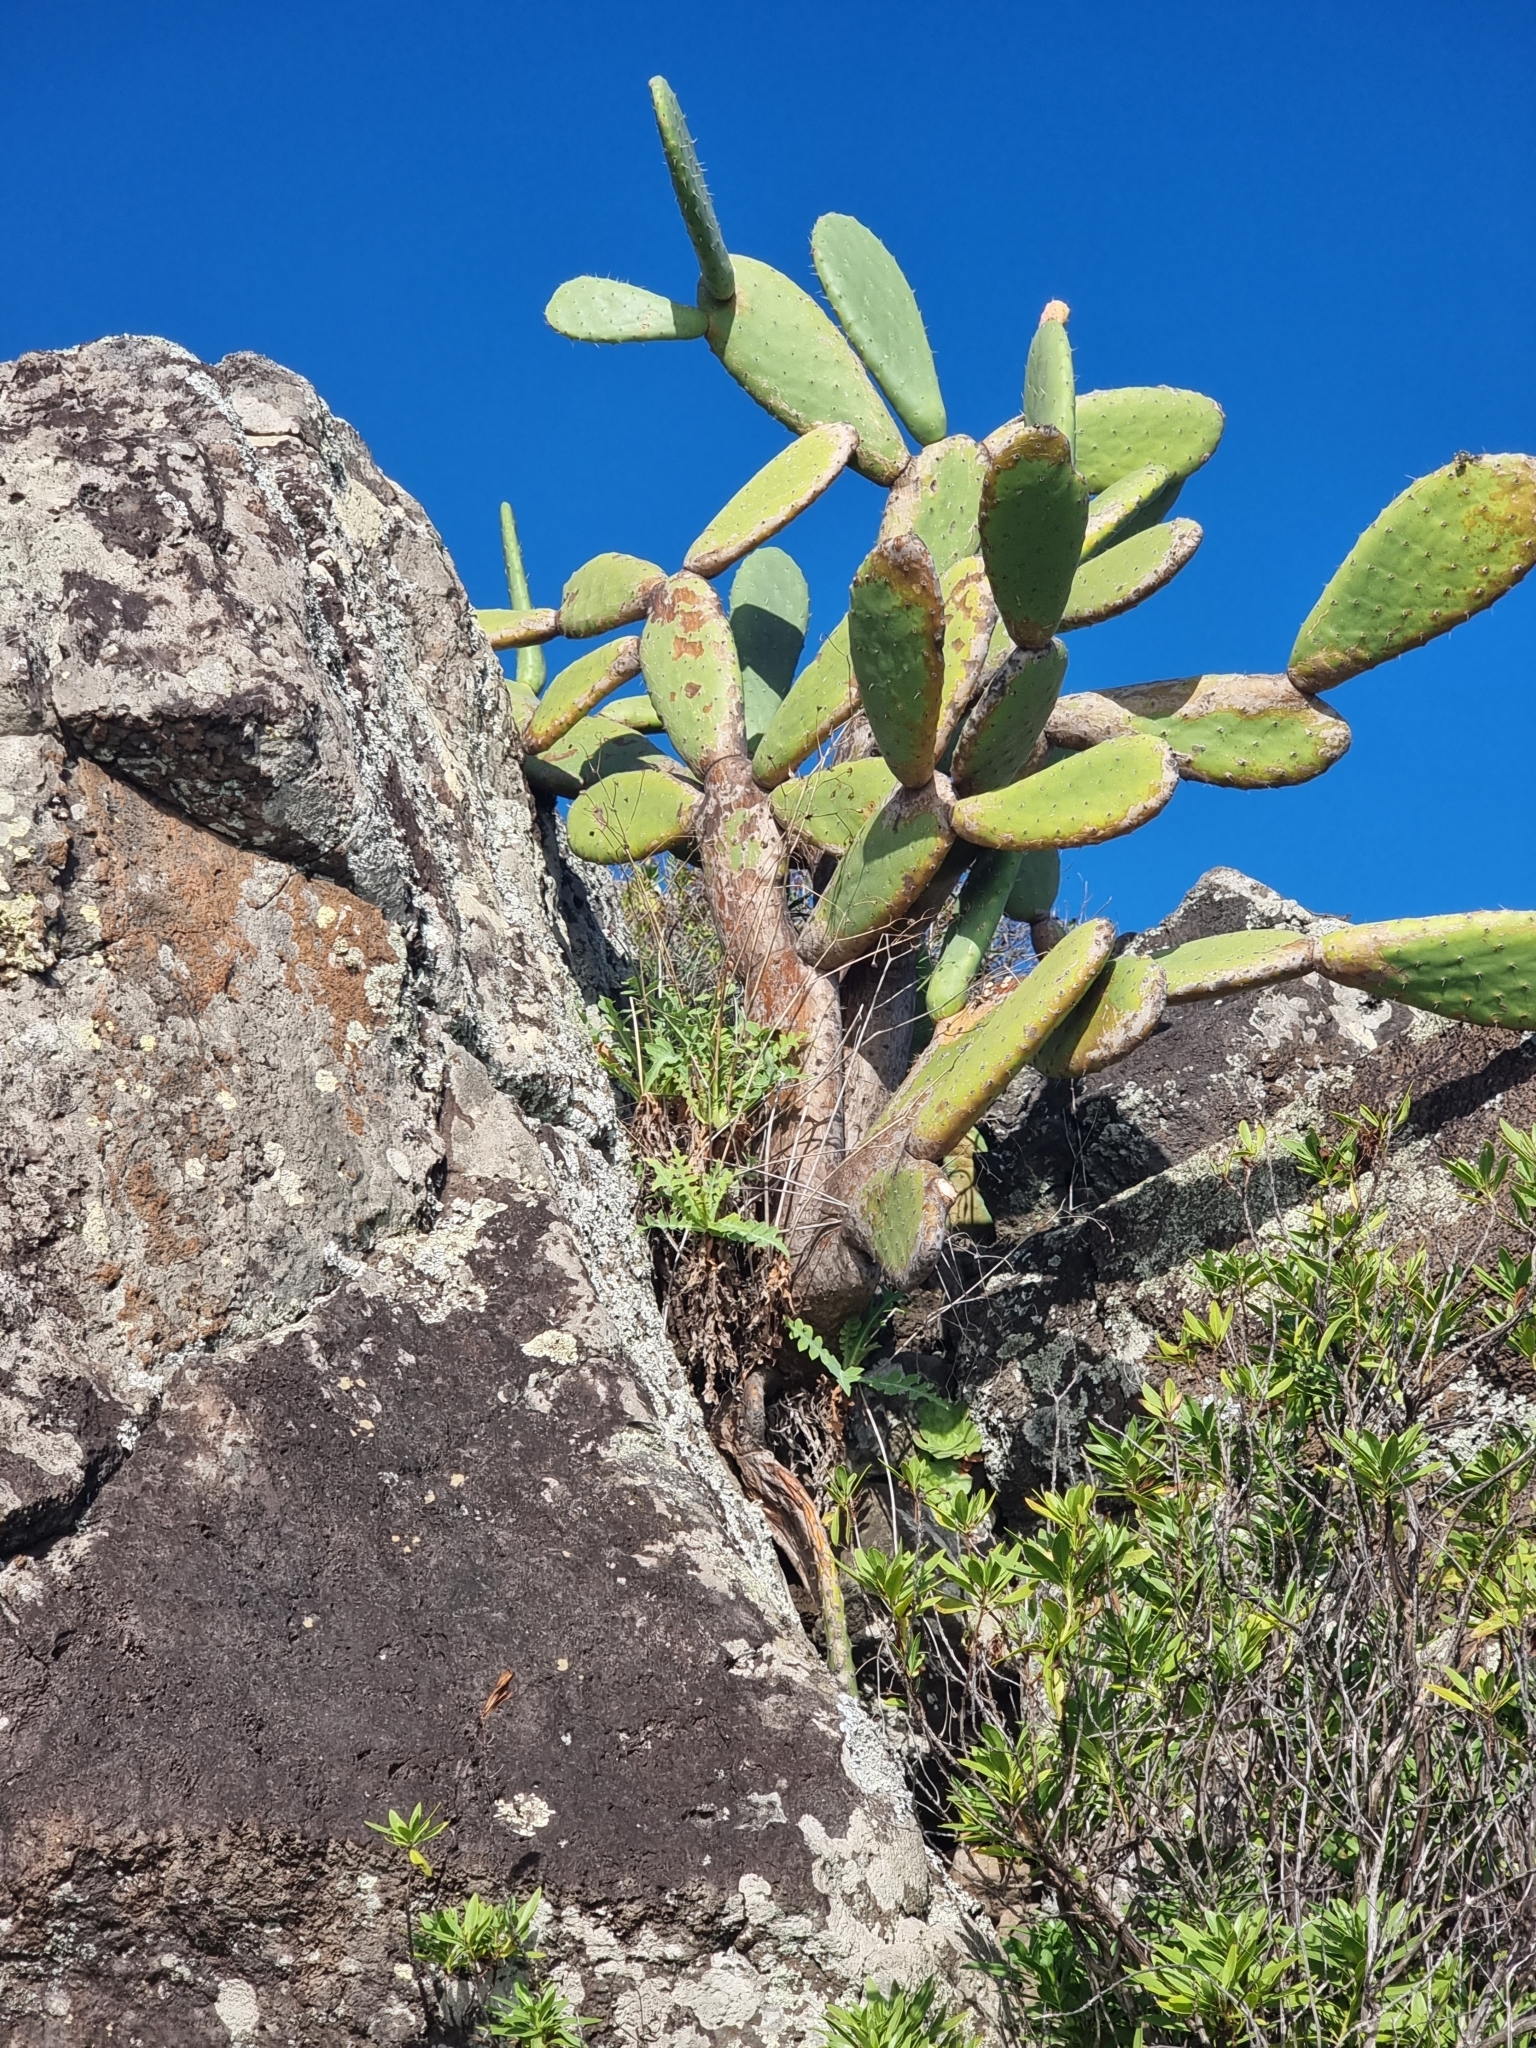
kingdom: Plantae
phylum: Tracheophyta
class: Magnoliopsida
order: Asterales
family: Asteraceae
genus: Sonchus
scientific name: Sonchus latifolius
